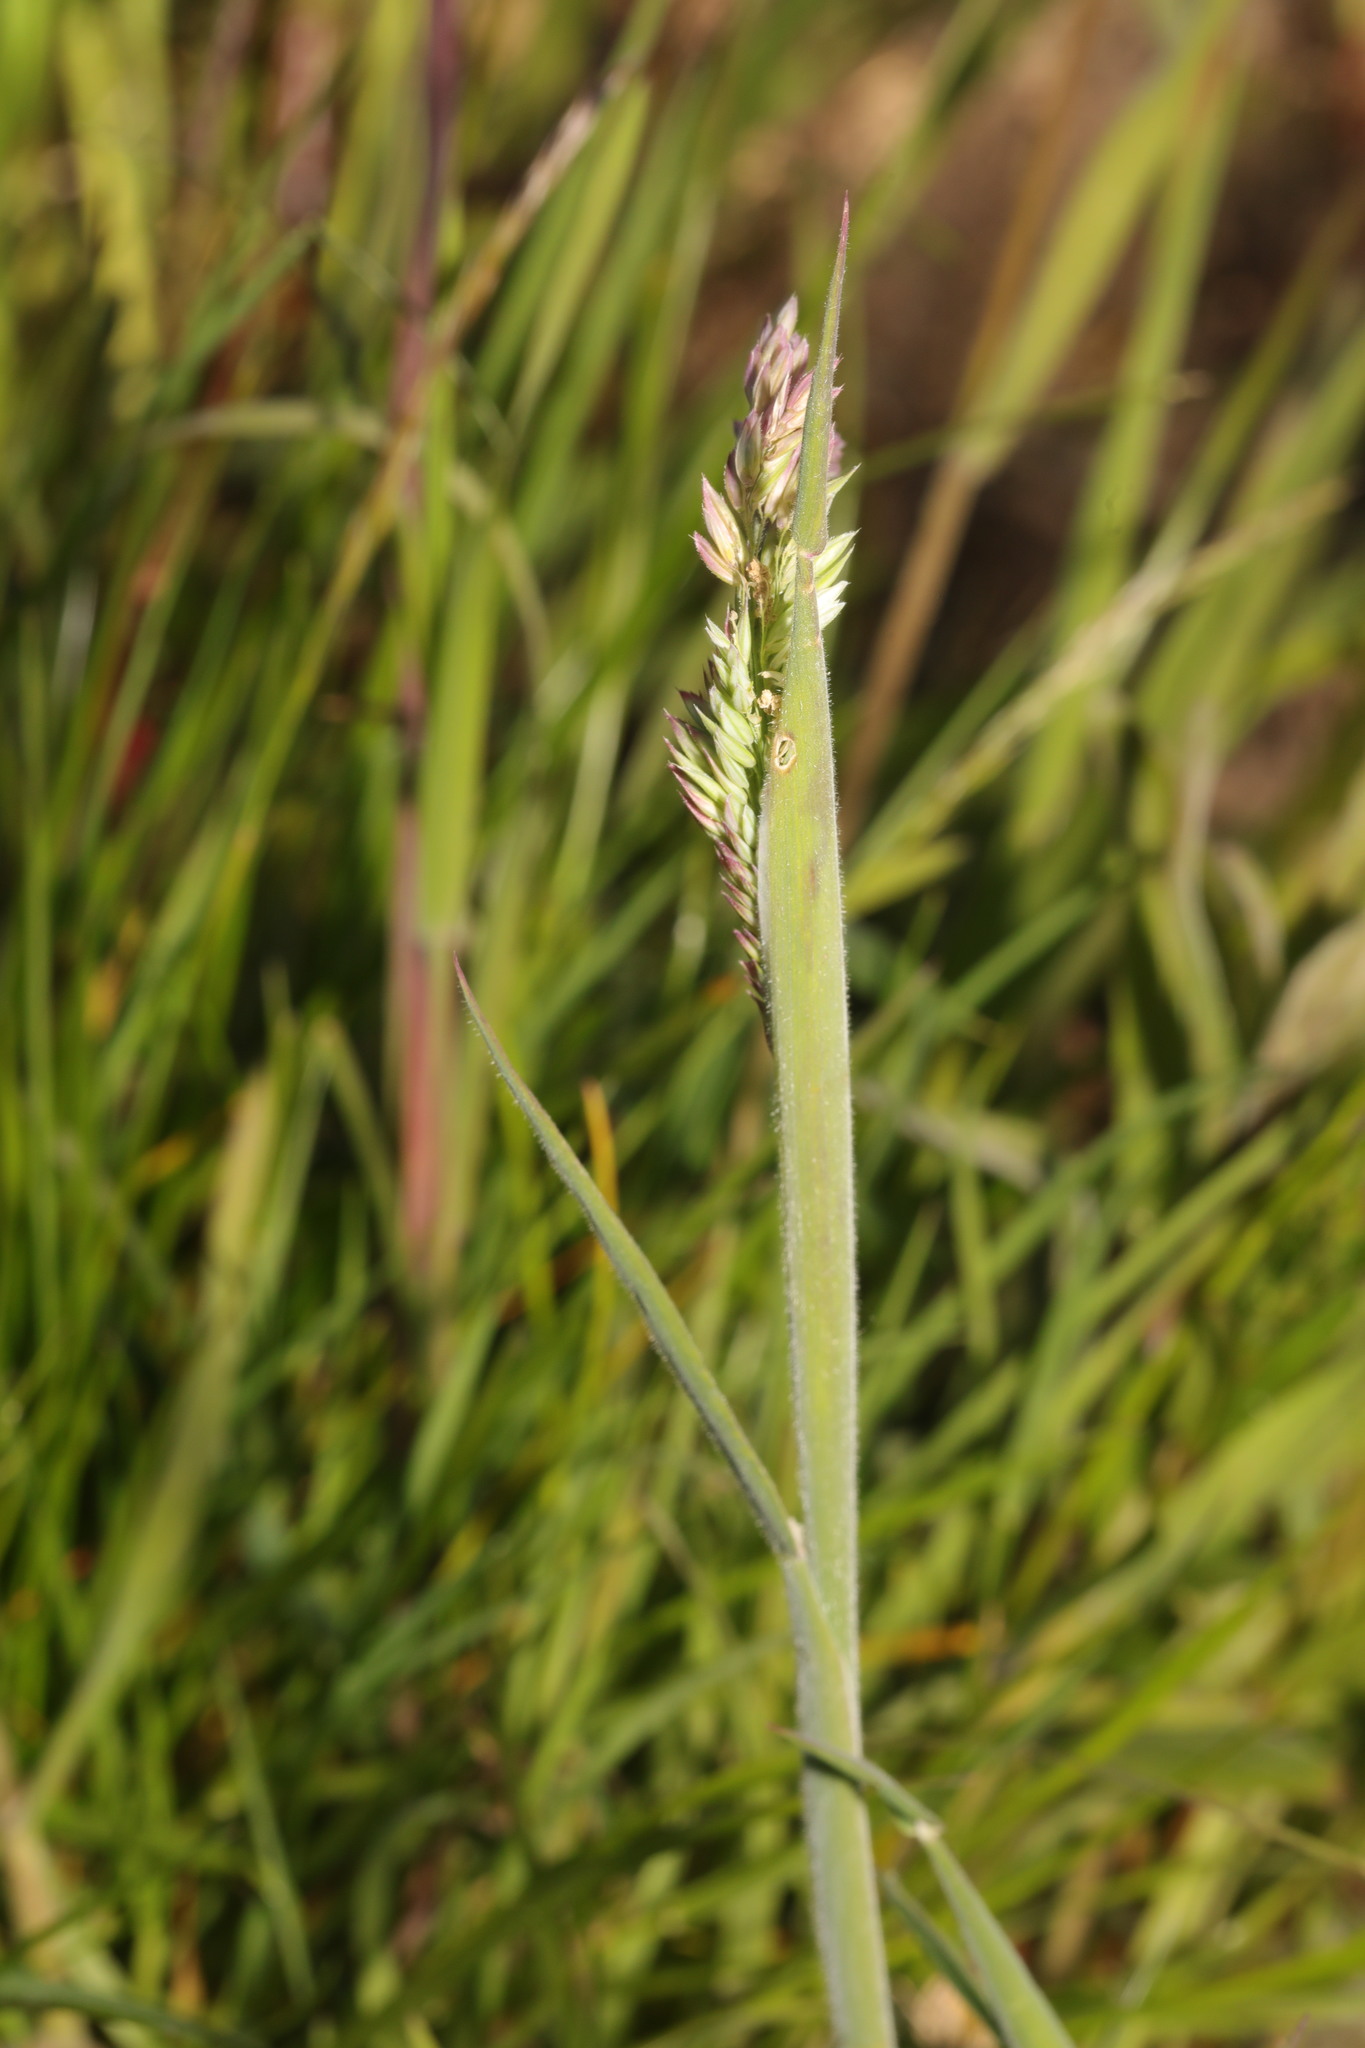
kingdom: Plantae
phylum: Tracheophyta
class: Liliopsida
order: Poales
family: Poaceae
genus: Holcus
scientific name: Holcus lanatus
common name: Yorkshire-fog
